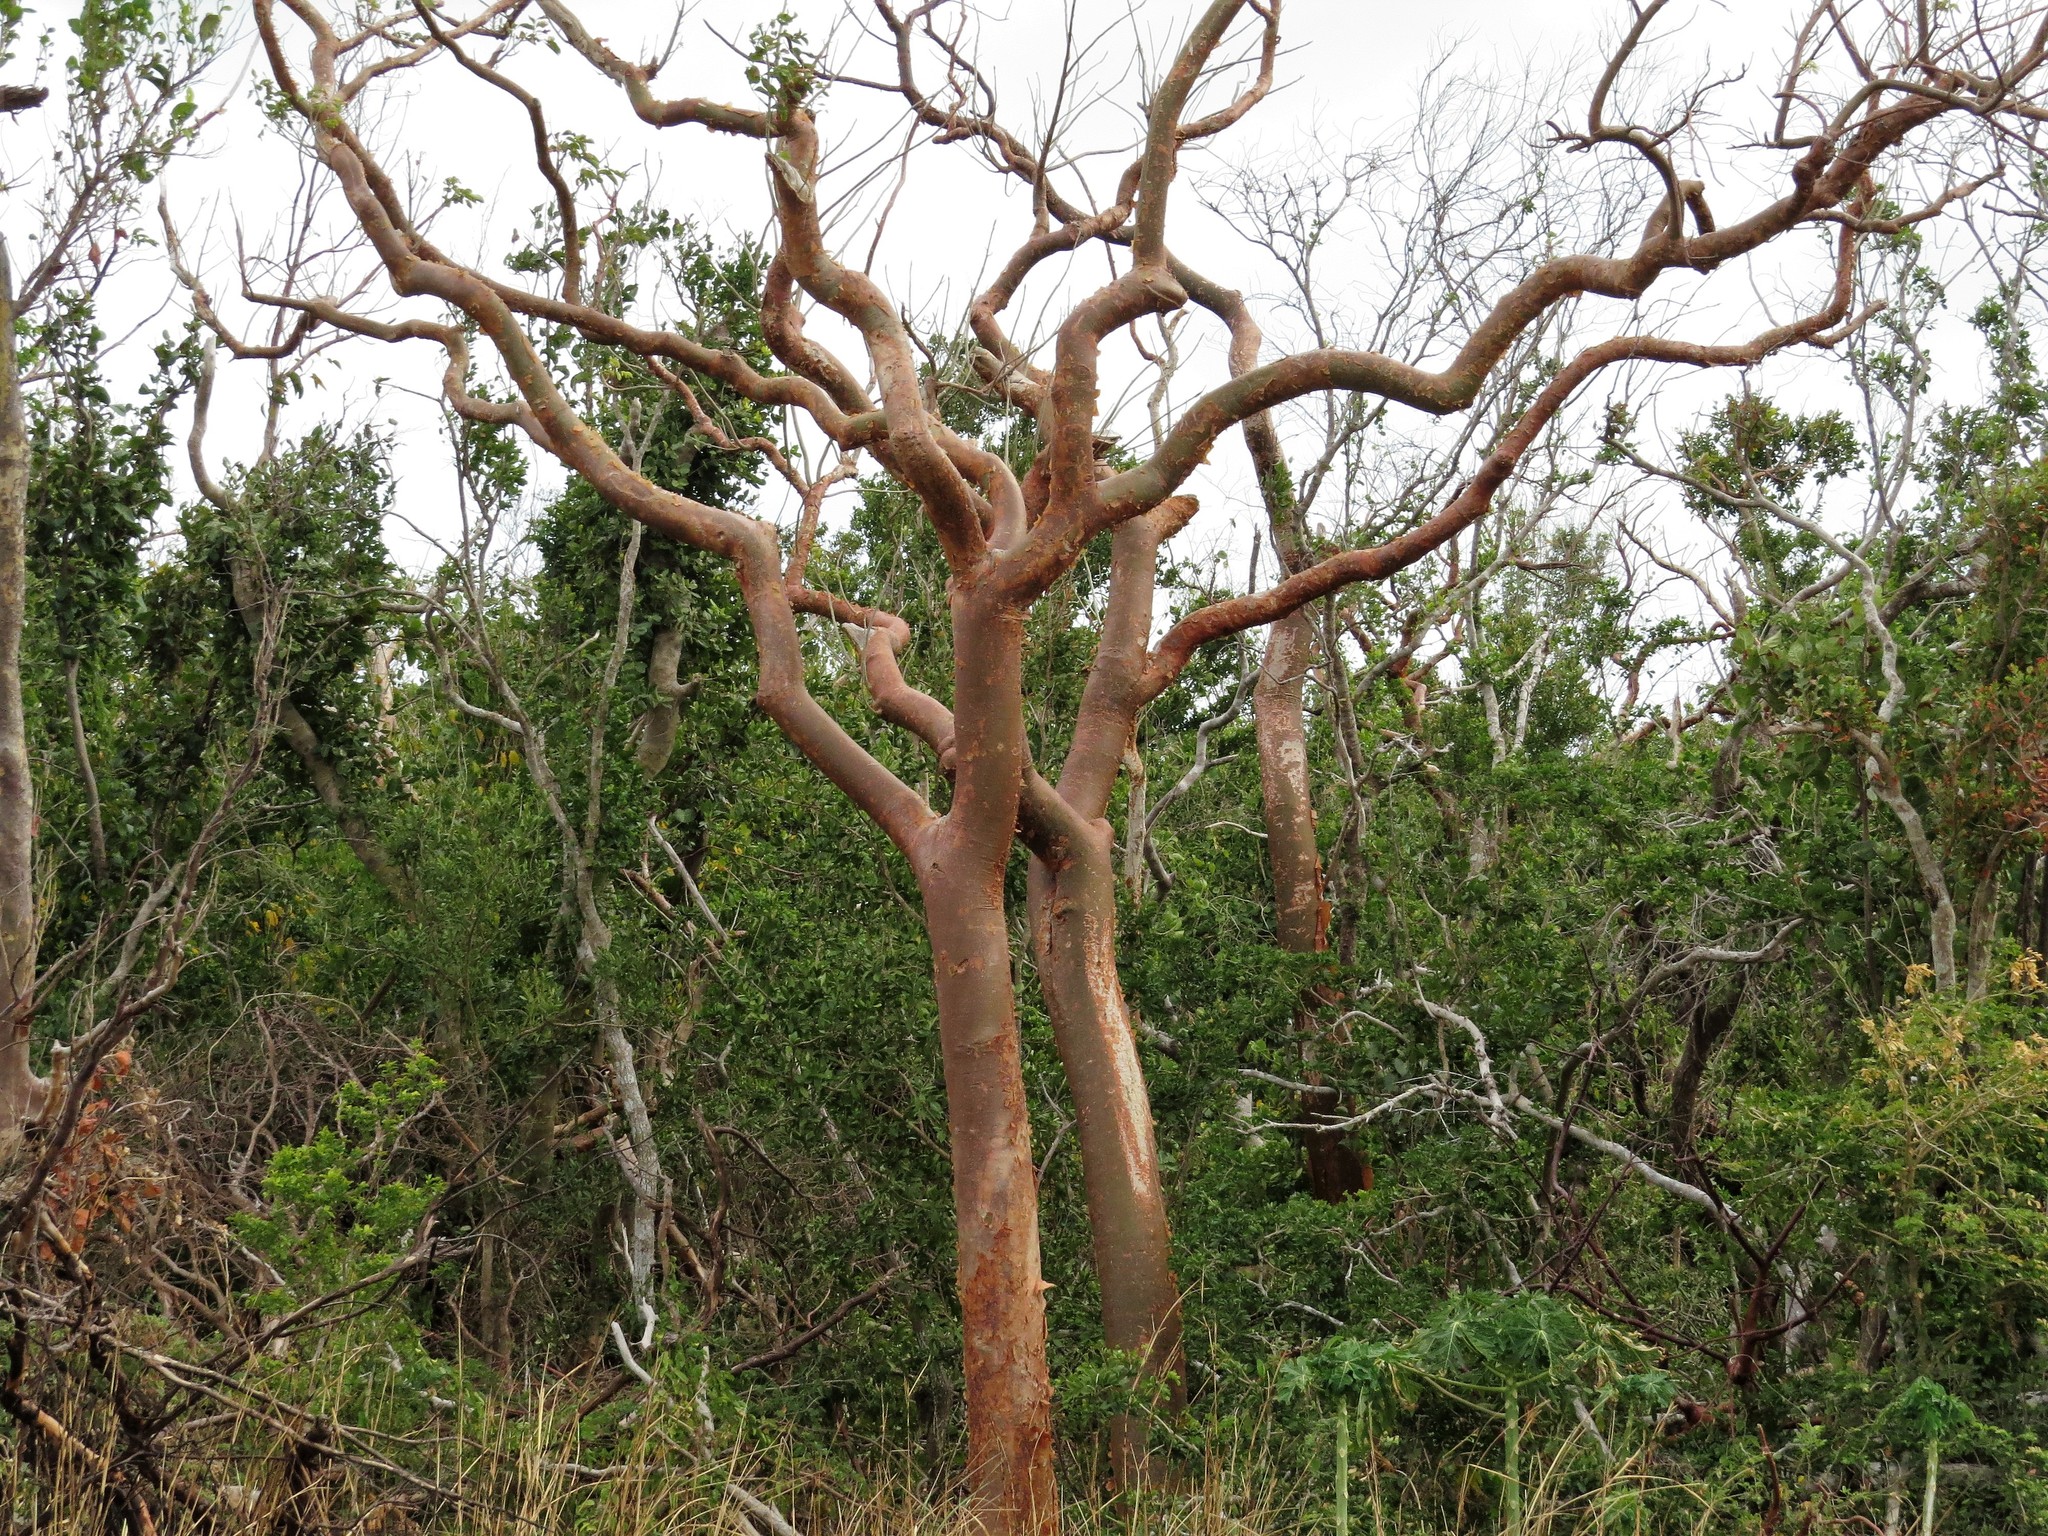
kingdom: Plantae
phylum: Tracheophyta
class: Magnoliopsida
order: Sapindales
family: Burseraceae
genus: Bursera
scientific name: Bursera simaruba
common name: Turpentine tree
